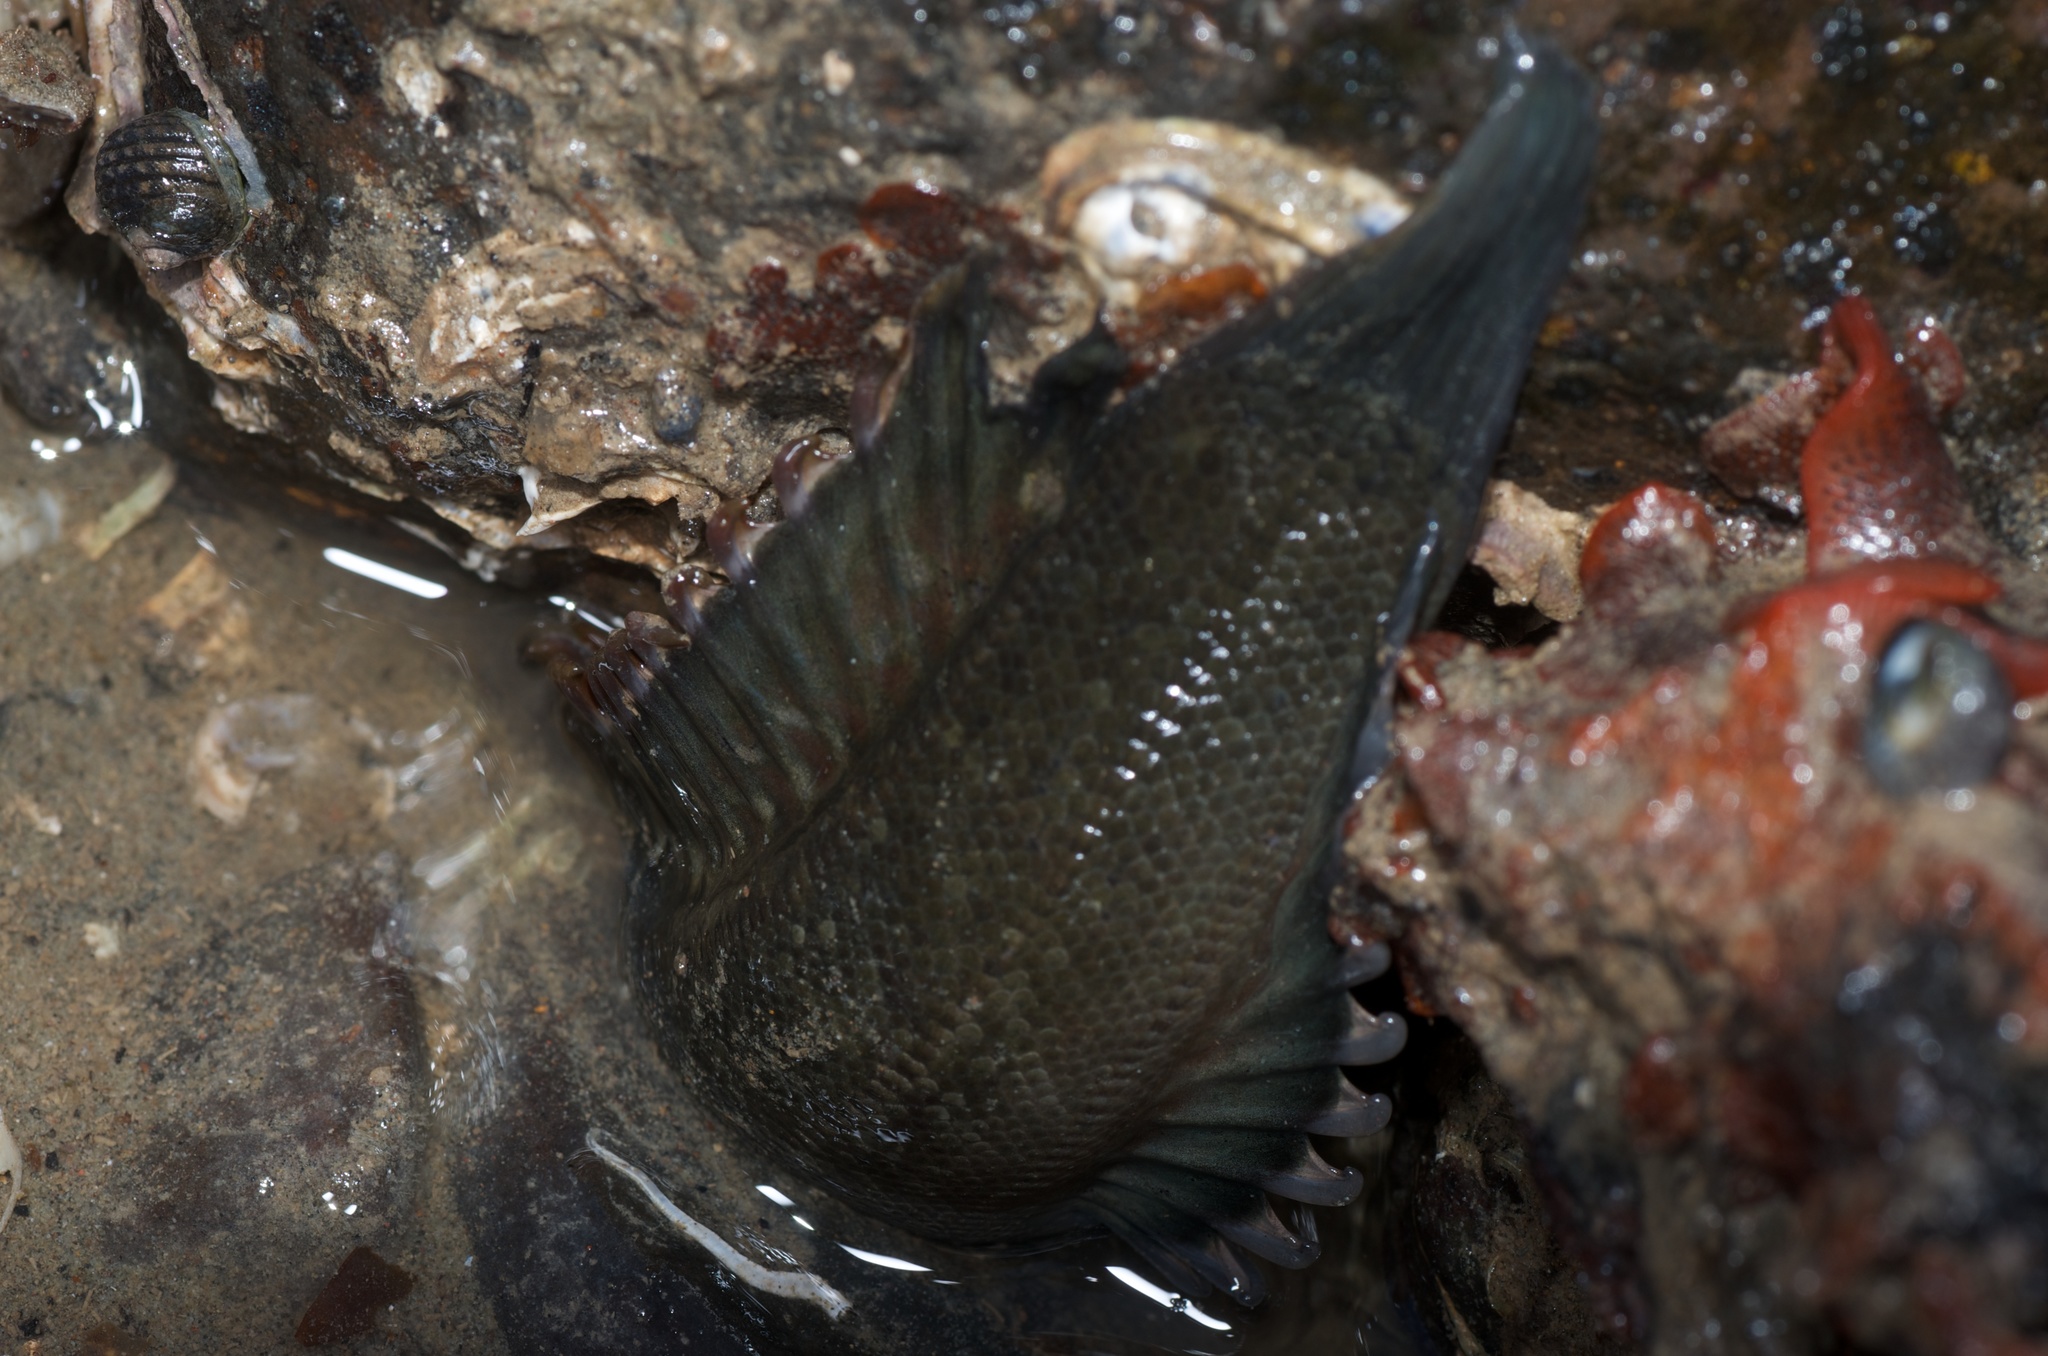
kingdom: Animalia
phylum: Chordata
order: Perciformes
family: Plesiopidae
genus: Acanthoclinus
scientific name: Acanthoclinus fuscus
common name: Olive rockfish
